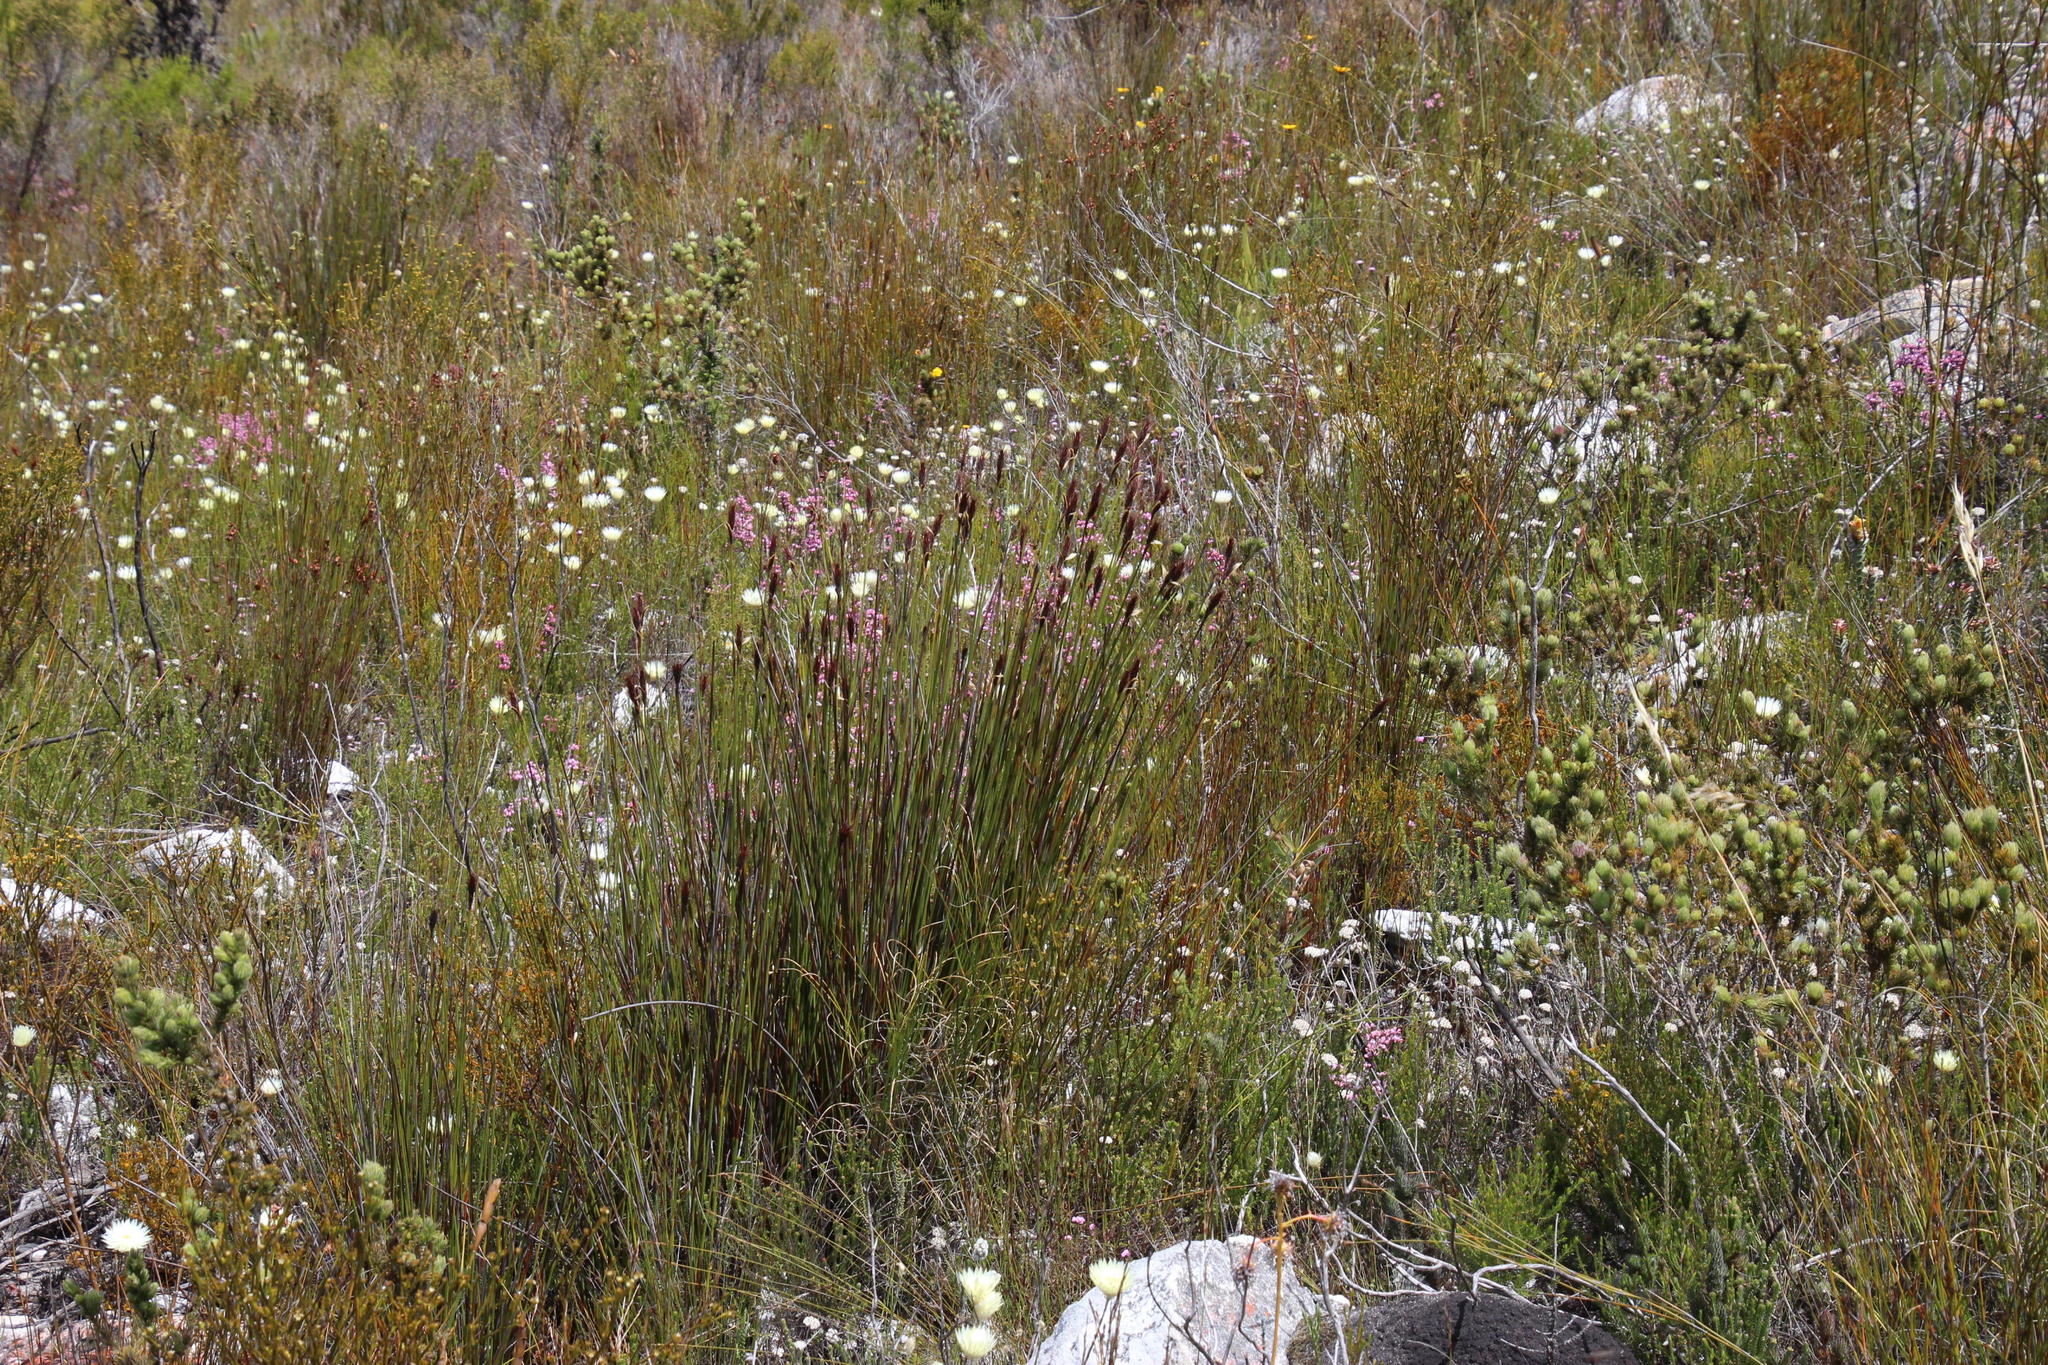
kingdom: Plantae
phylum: Tracheophyta
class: Liliopsida
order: Poales
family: Restionaceae
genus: Hypodiscus
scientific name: Hypodiscus aristatus
